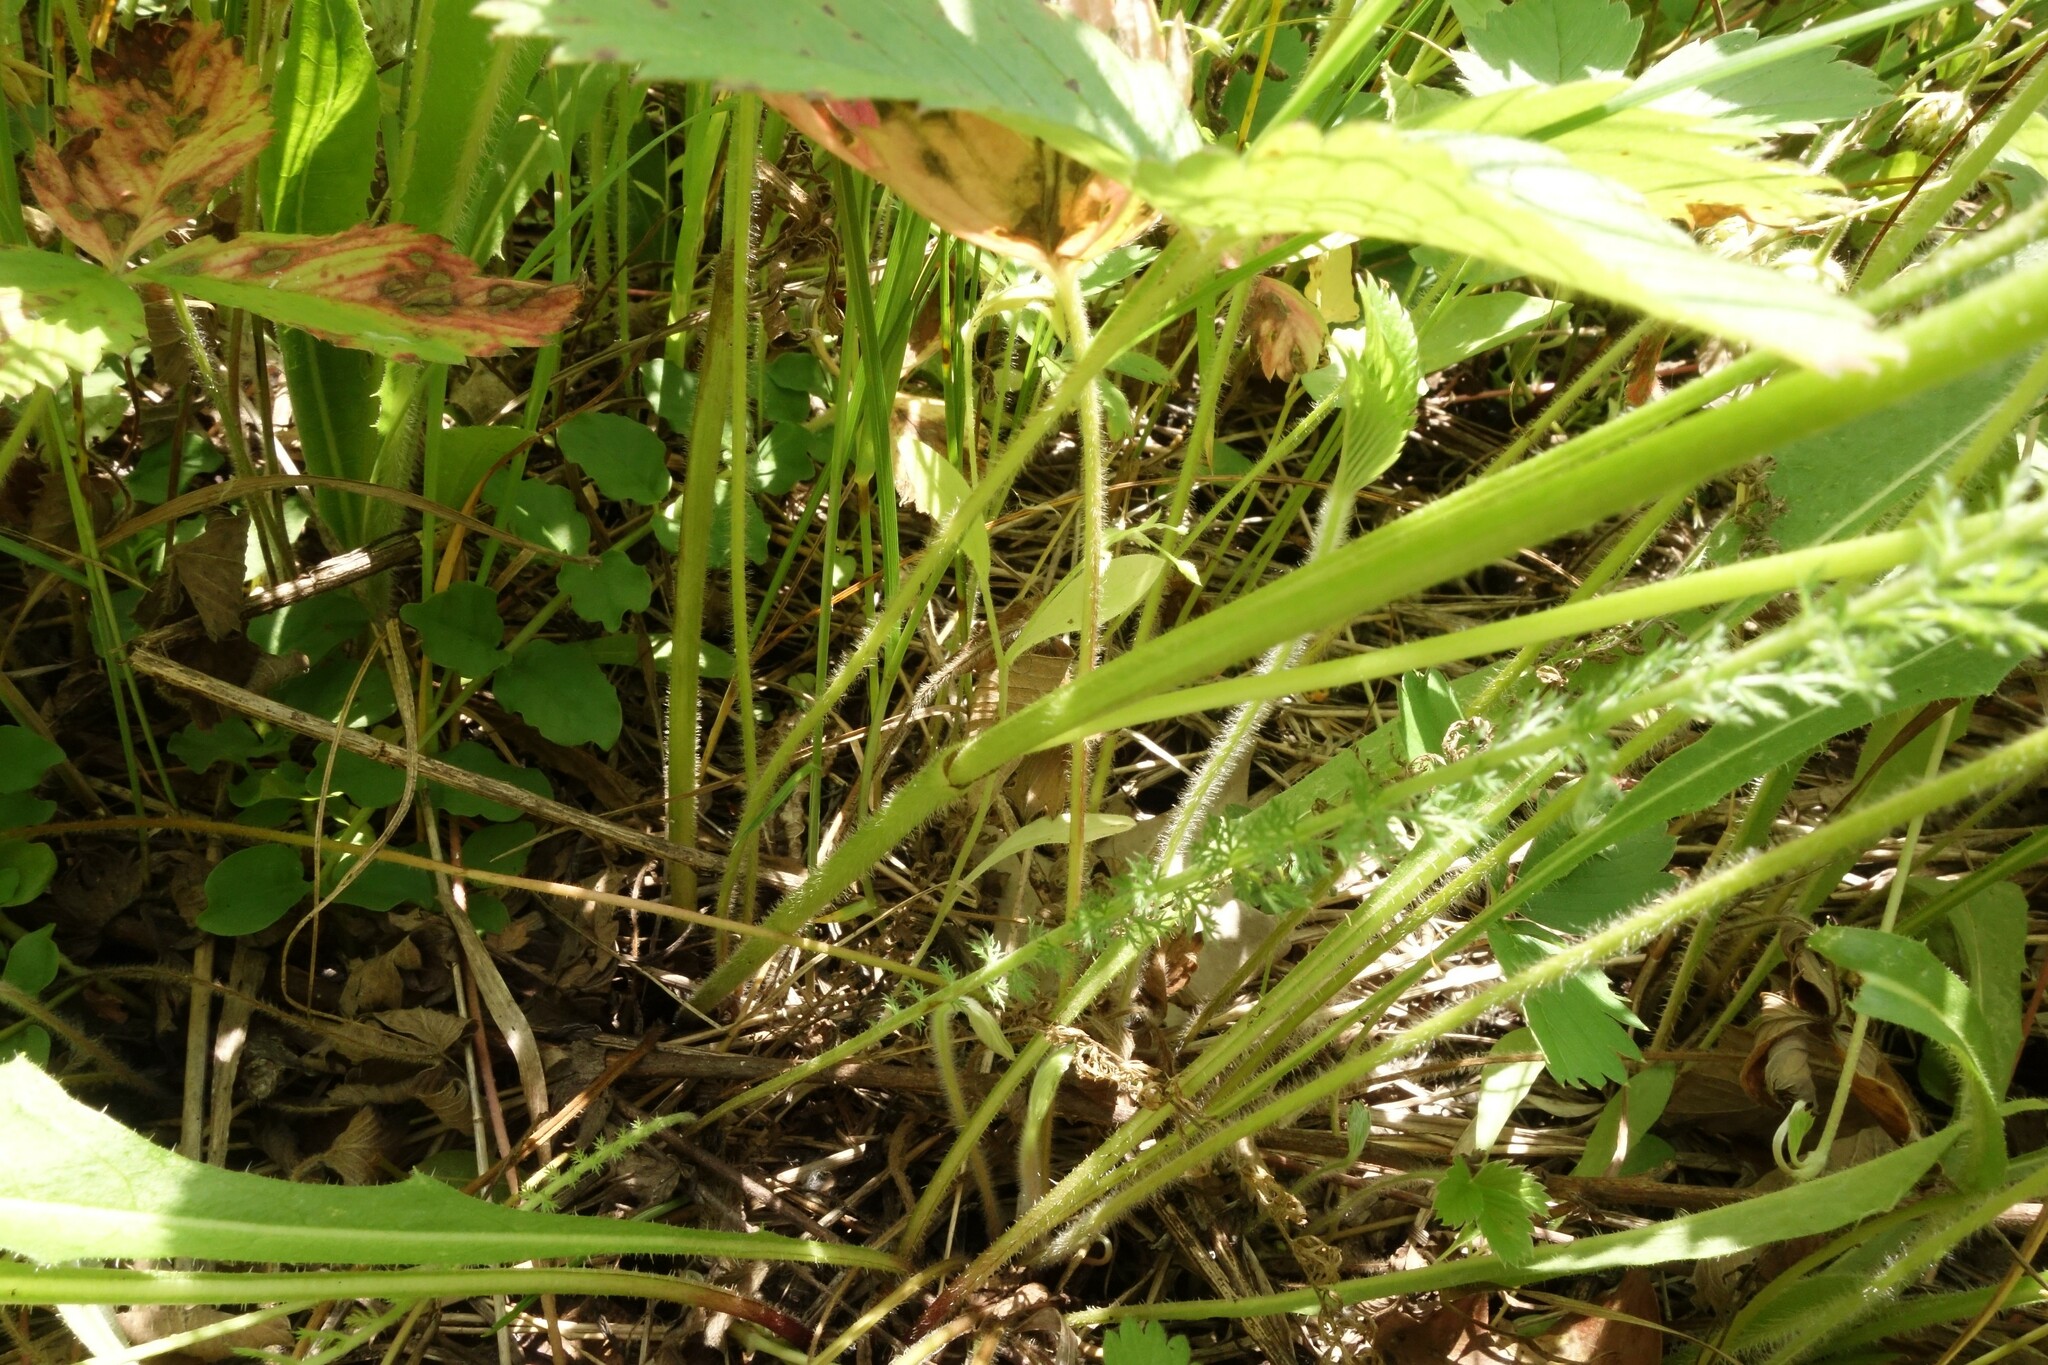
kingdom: Plantae
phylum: Tracheophyta
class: Magnoliopsida
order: Ranunculales
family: Ranunculaceae
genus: Ranunculus
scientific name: Ranunculus polyanthemos
